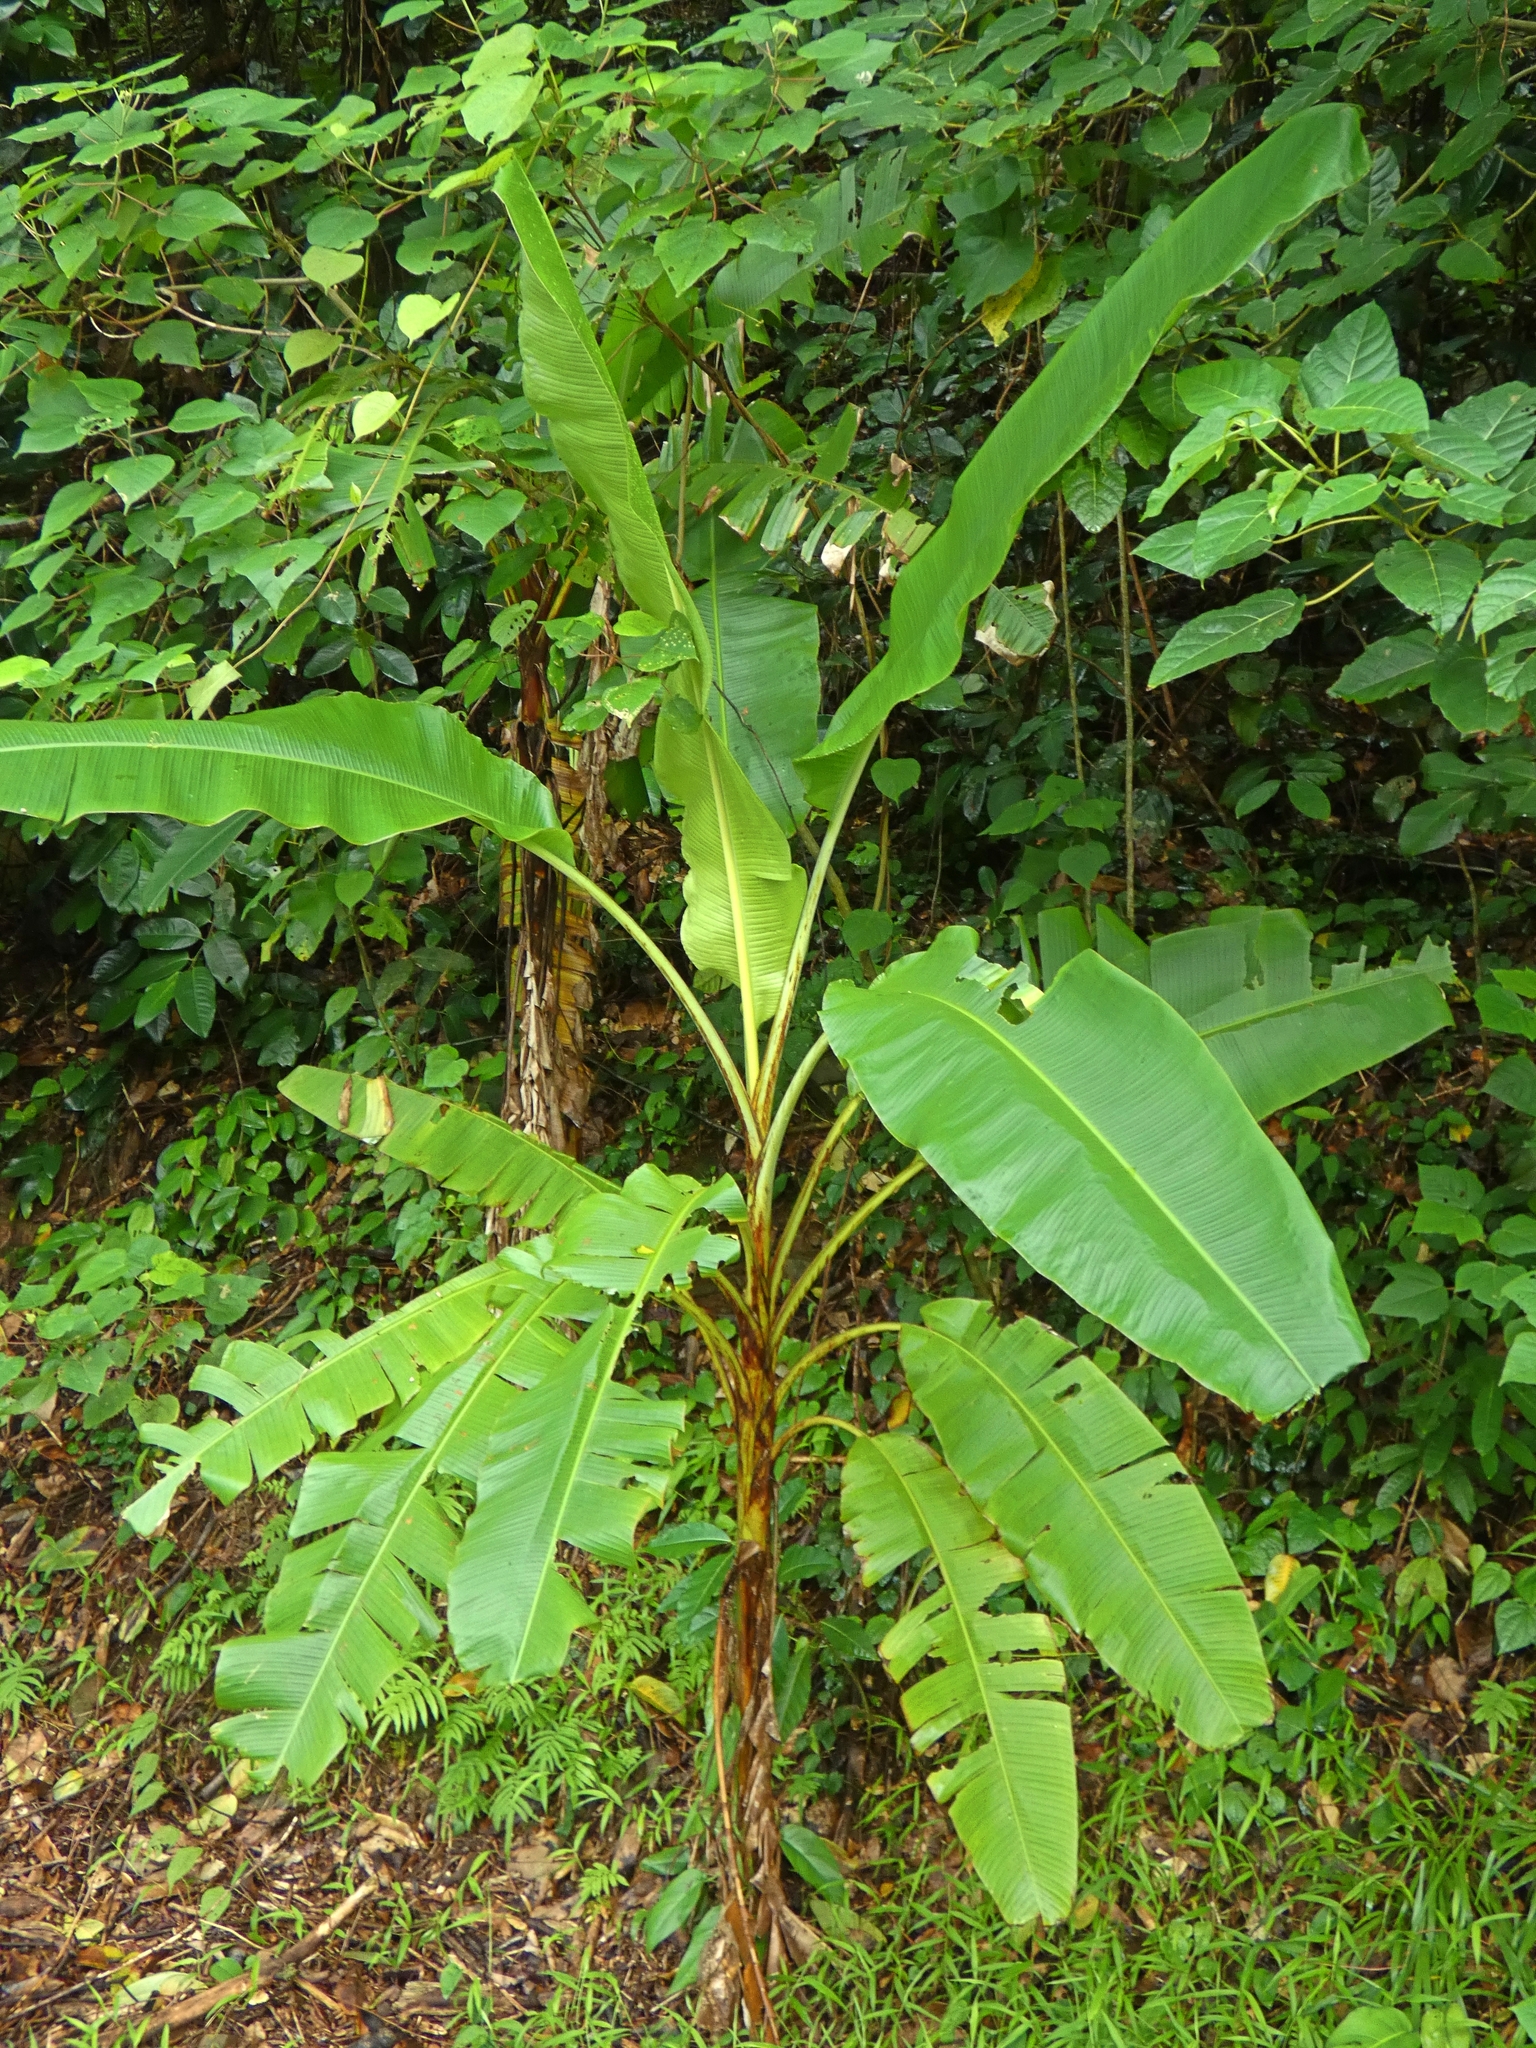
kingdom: Plantae
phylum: Tracheophyta
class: Liliopsida
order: Zingiberales
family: Musaceae
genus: Musa
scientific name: Musa banksii
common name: Maroon-stemmed banana
